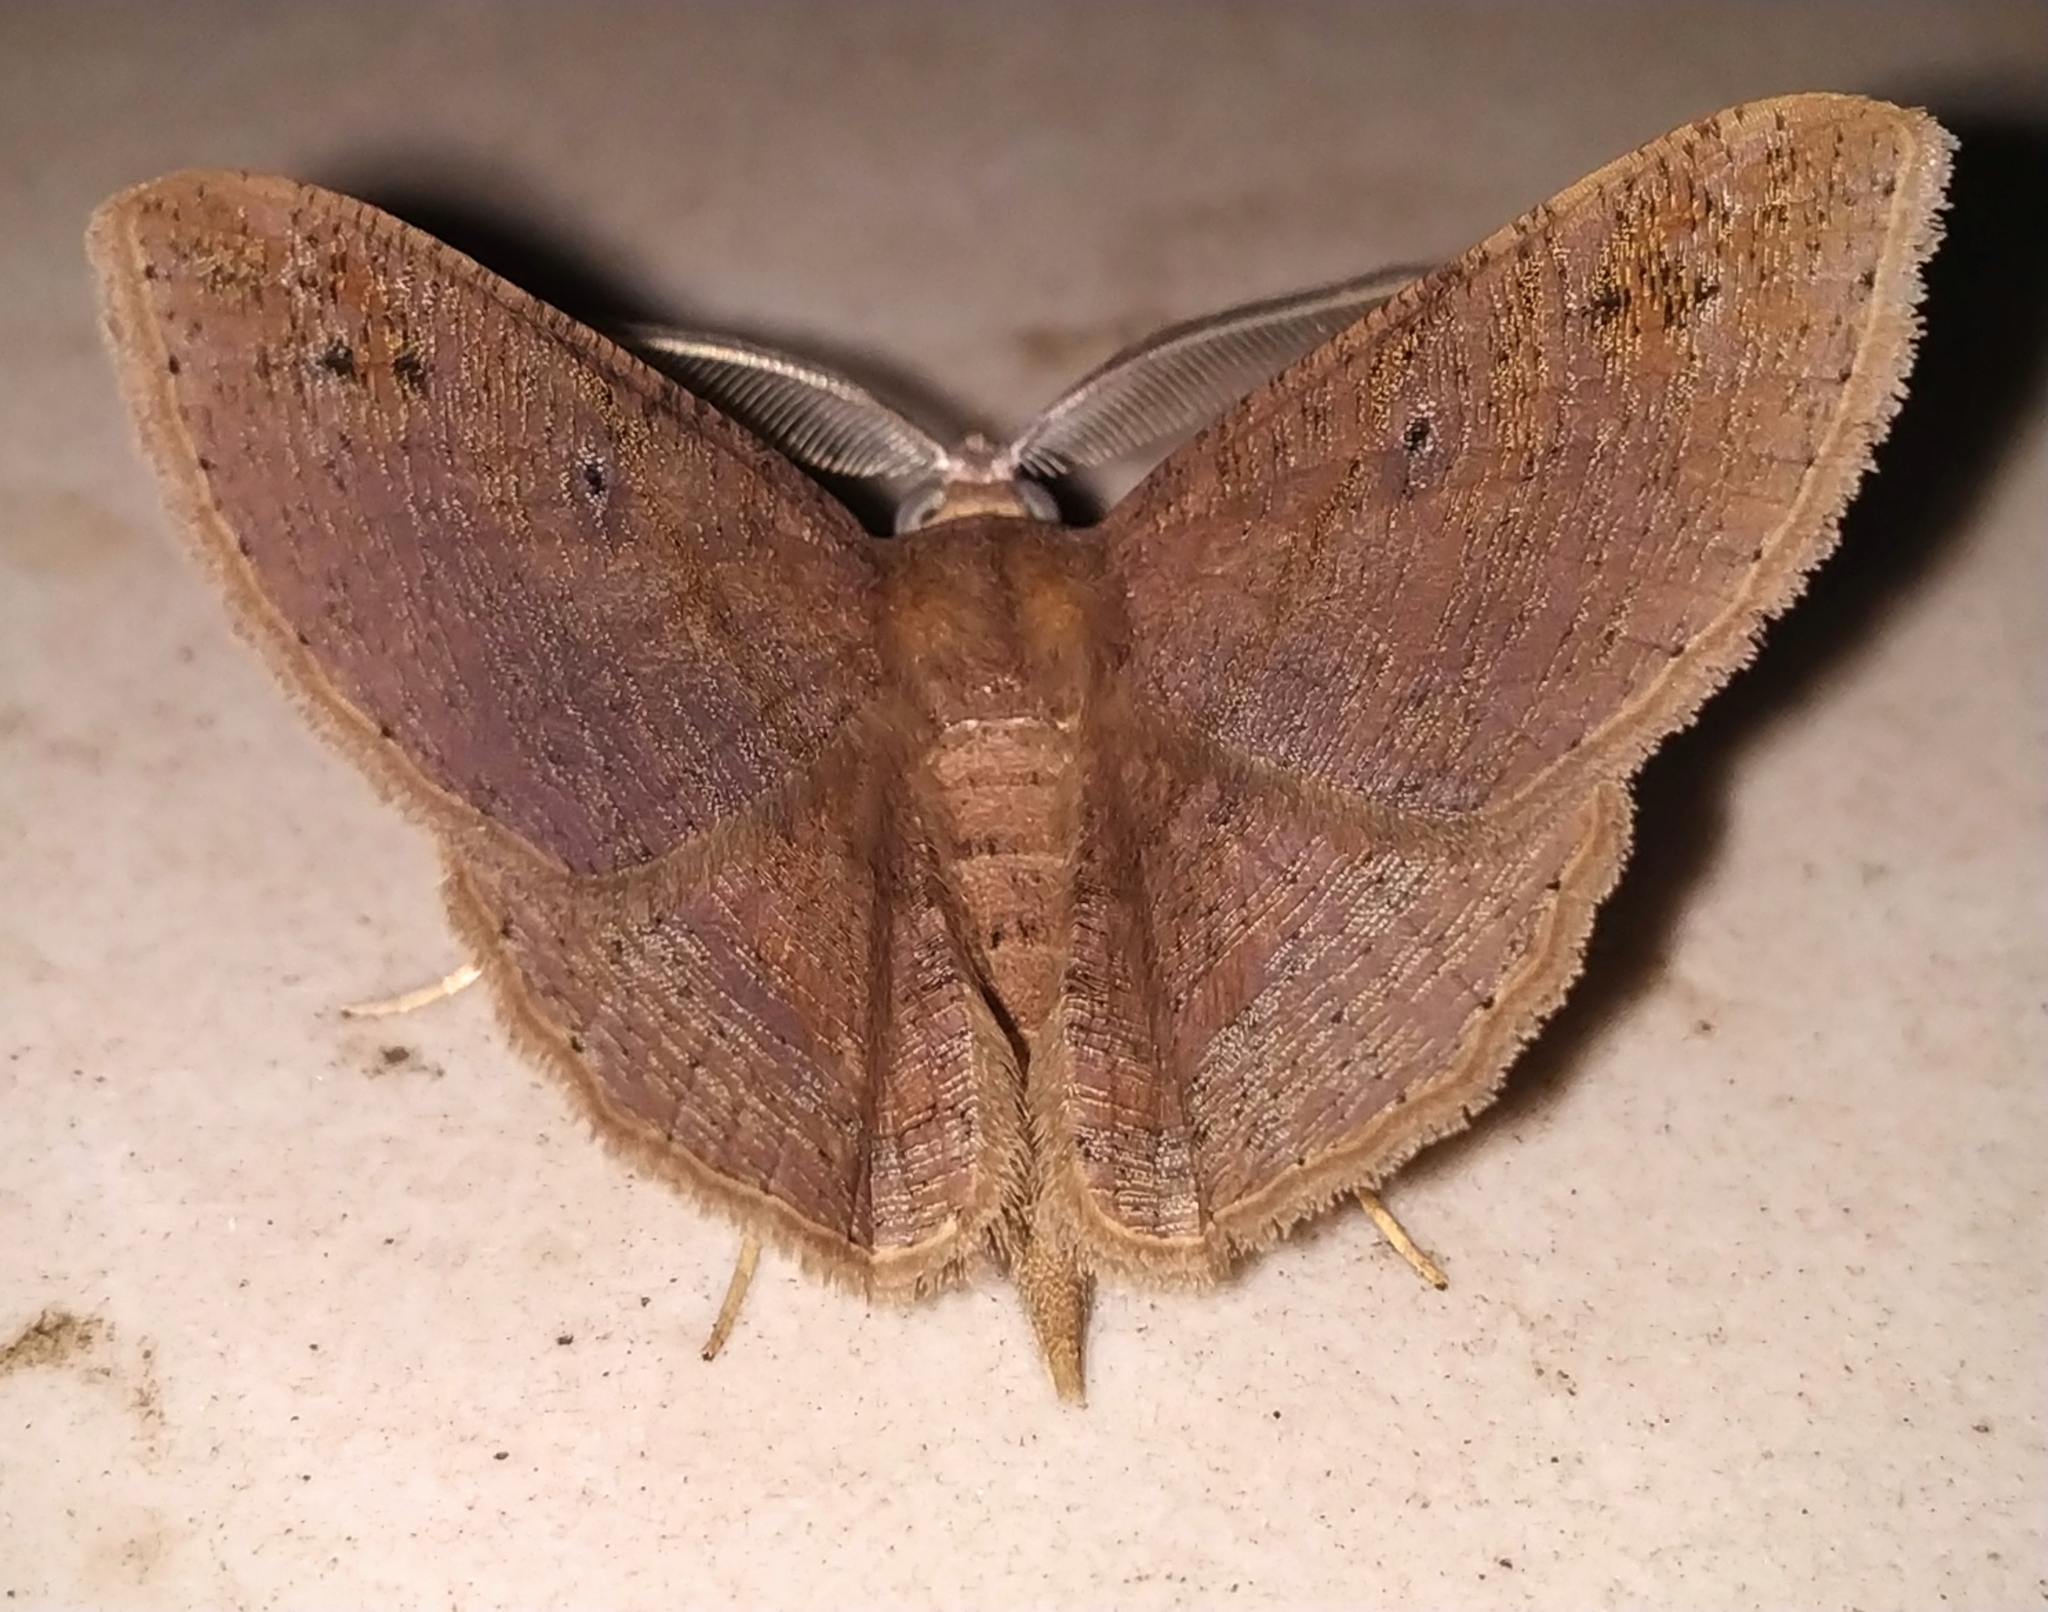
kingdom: Animalia
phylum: Arthropoda
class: Insecta
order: Lepidoptera
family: Geometridae
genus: Petelia
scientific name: Petelia medardaria
